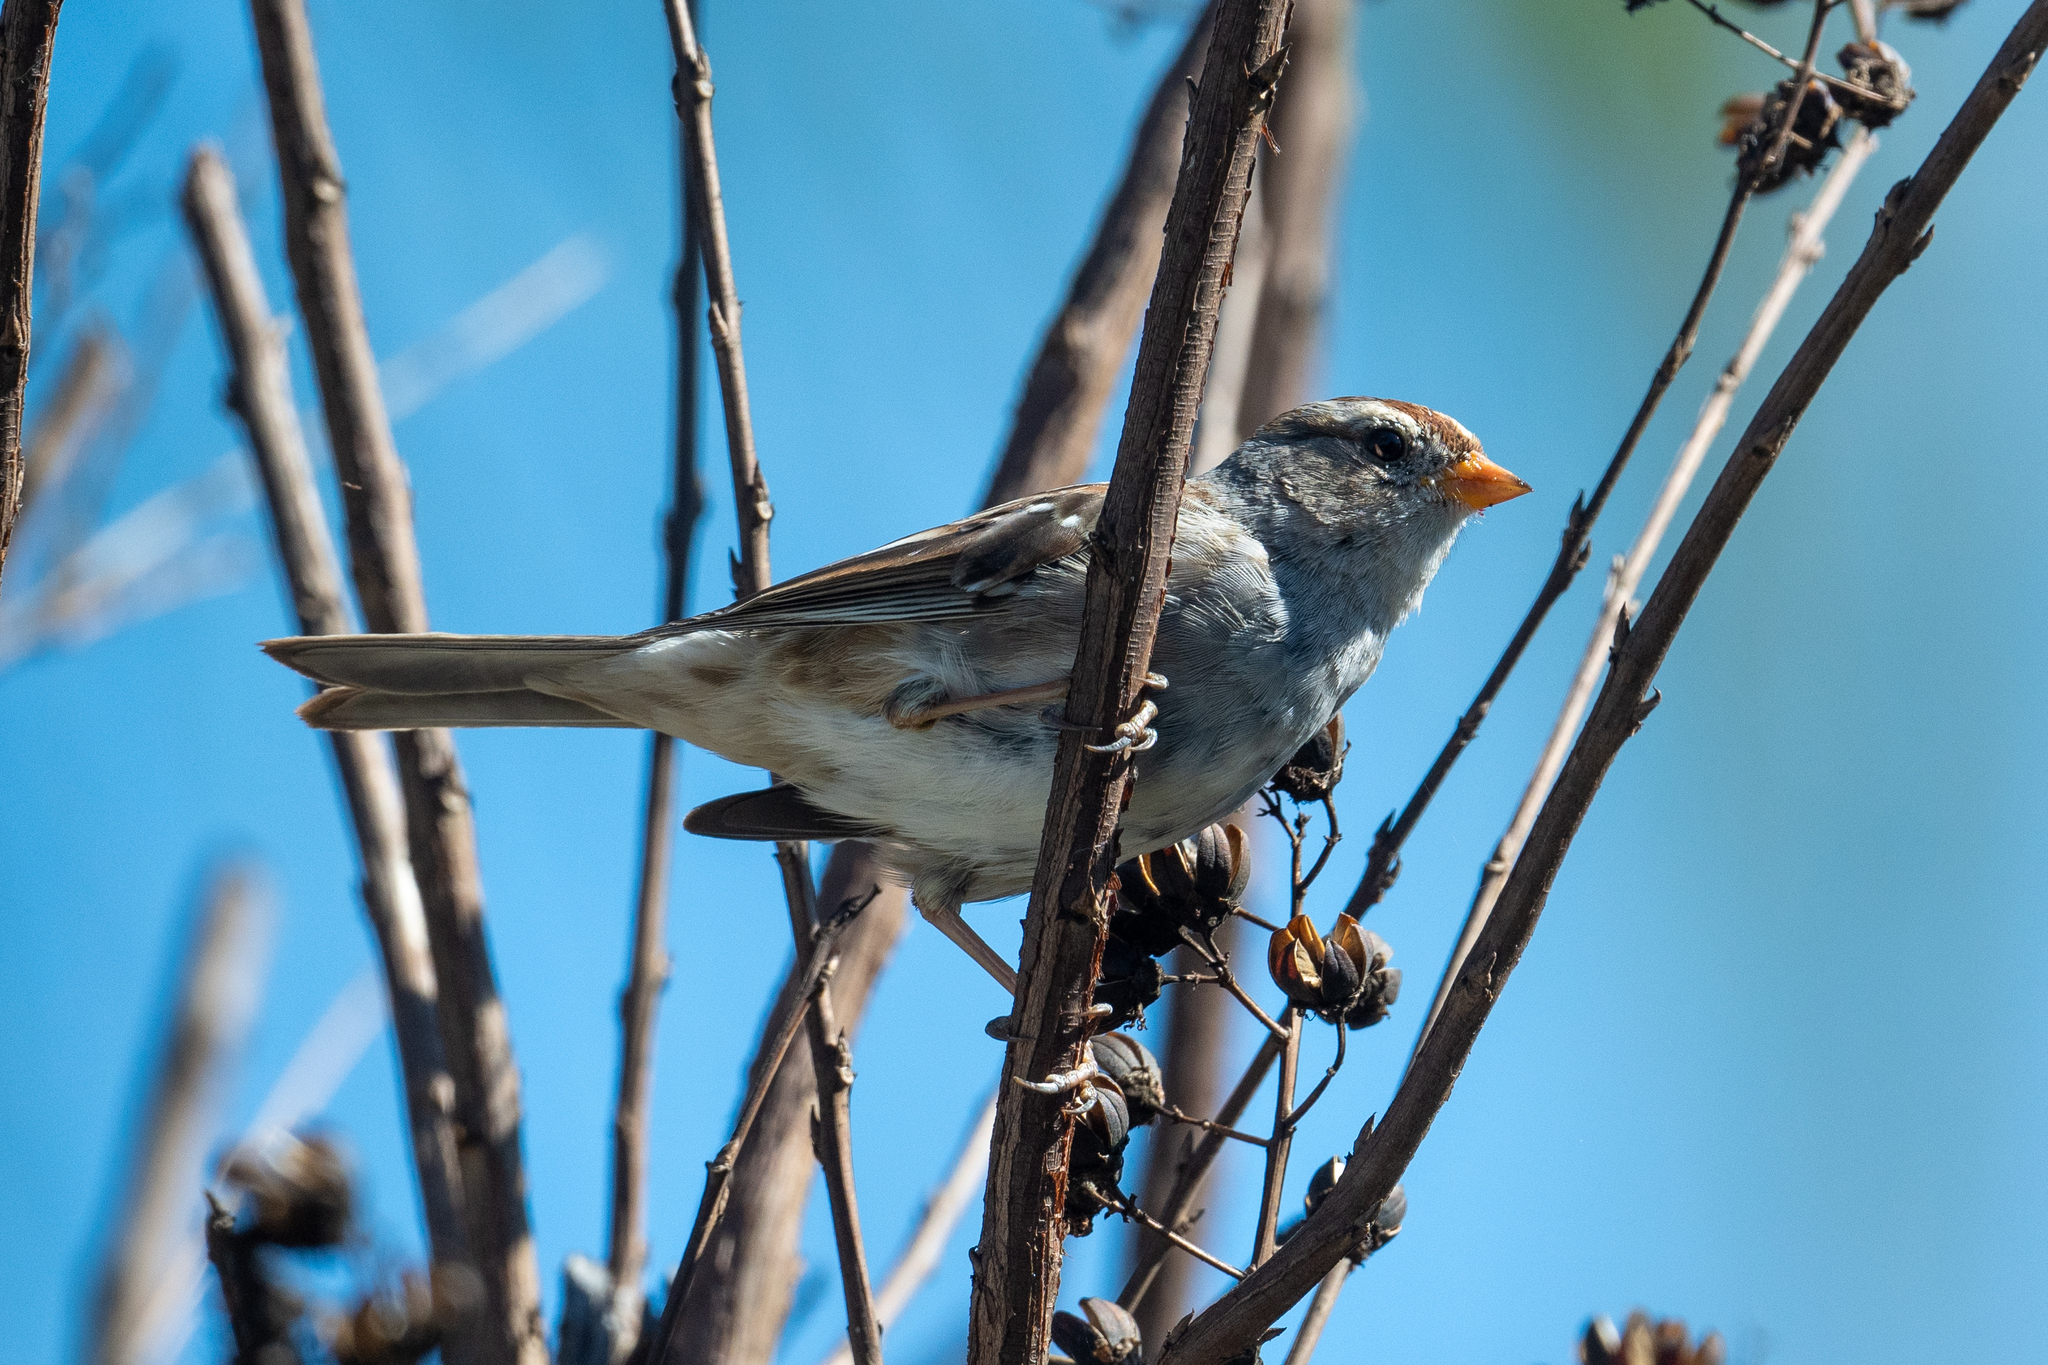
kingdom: Animalia
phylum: Chordata
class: Aves
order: Passeriformes
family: Passerellidae
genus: Zonotrichia
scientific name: Zonotrichia leucophrys
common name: White-crowned sparrow
